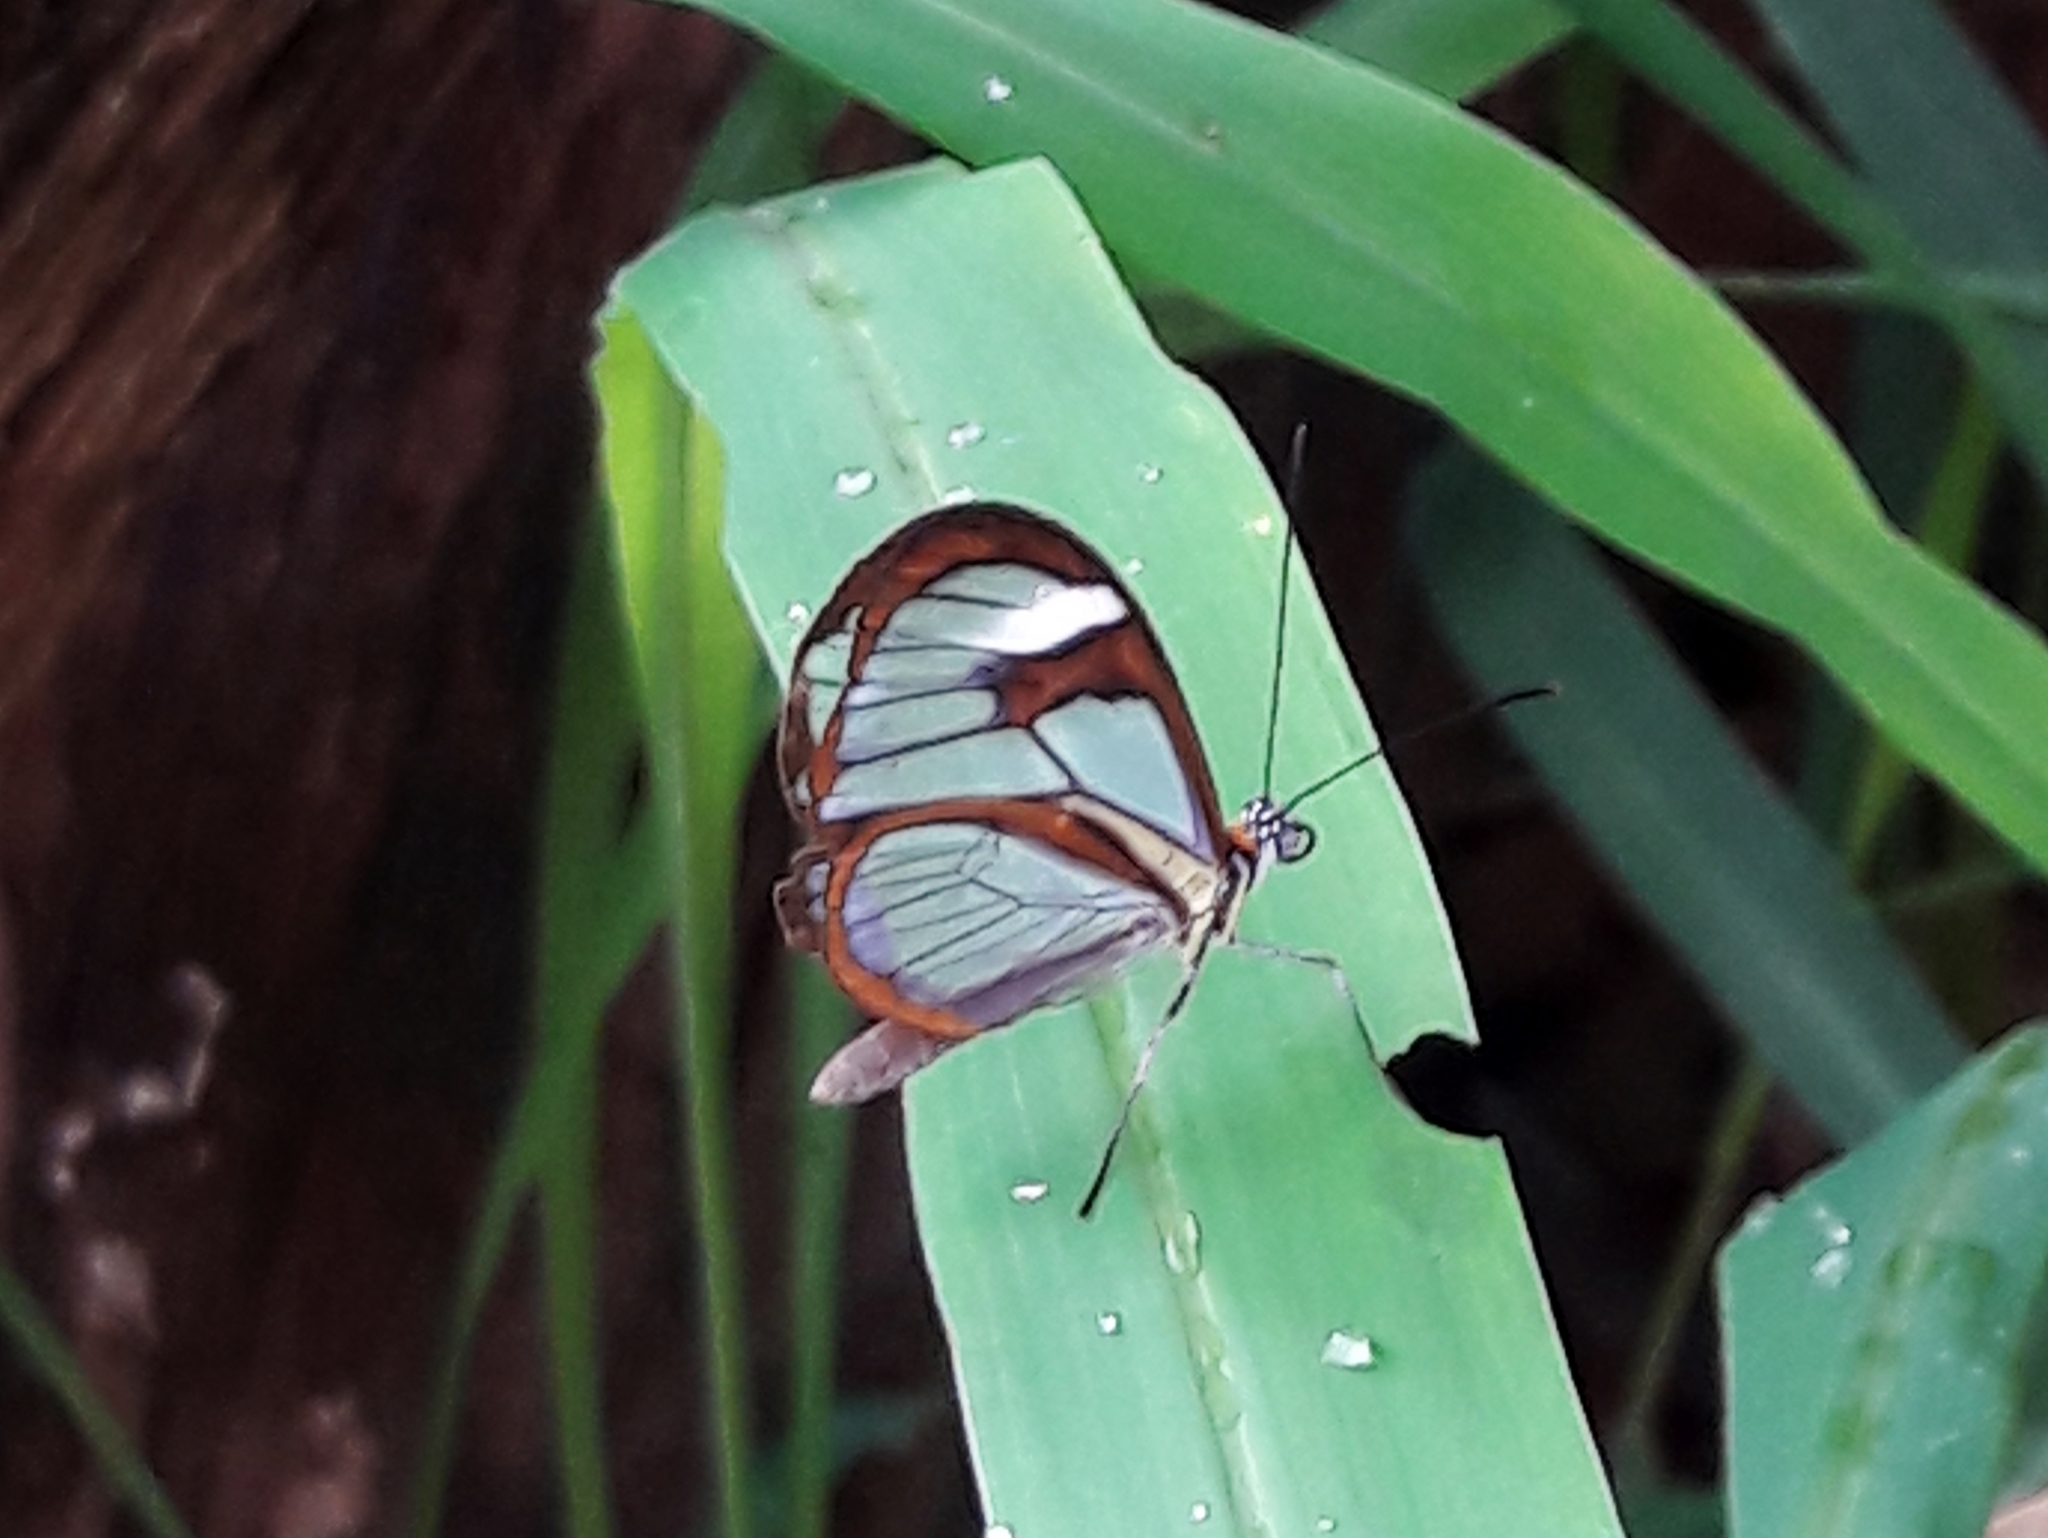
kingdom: Animalia
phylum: Arthropoda
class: Insecta
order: Lepidoptera
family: Nymphalidae
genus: Ithomia
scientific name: Ithomia agnosia
